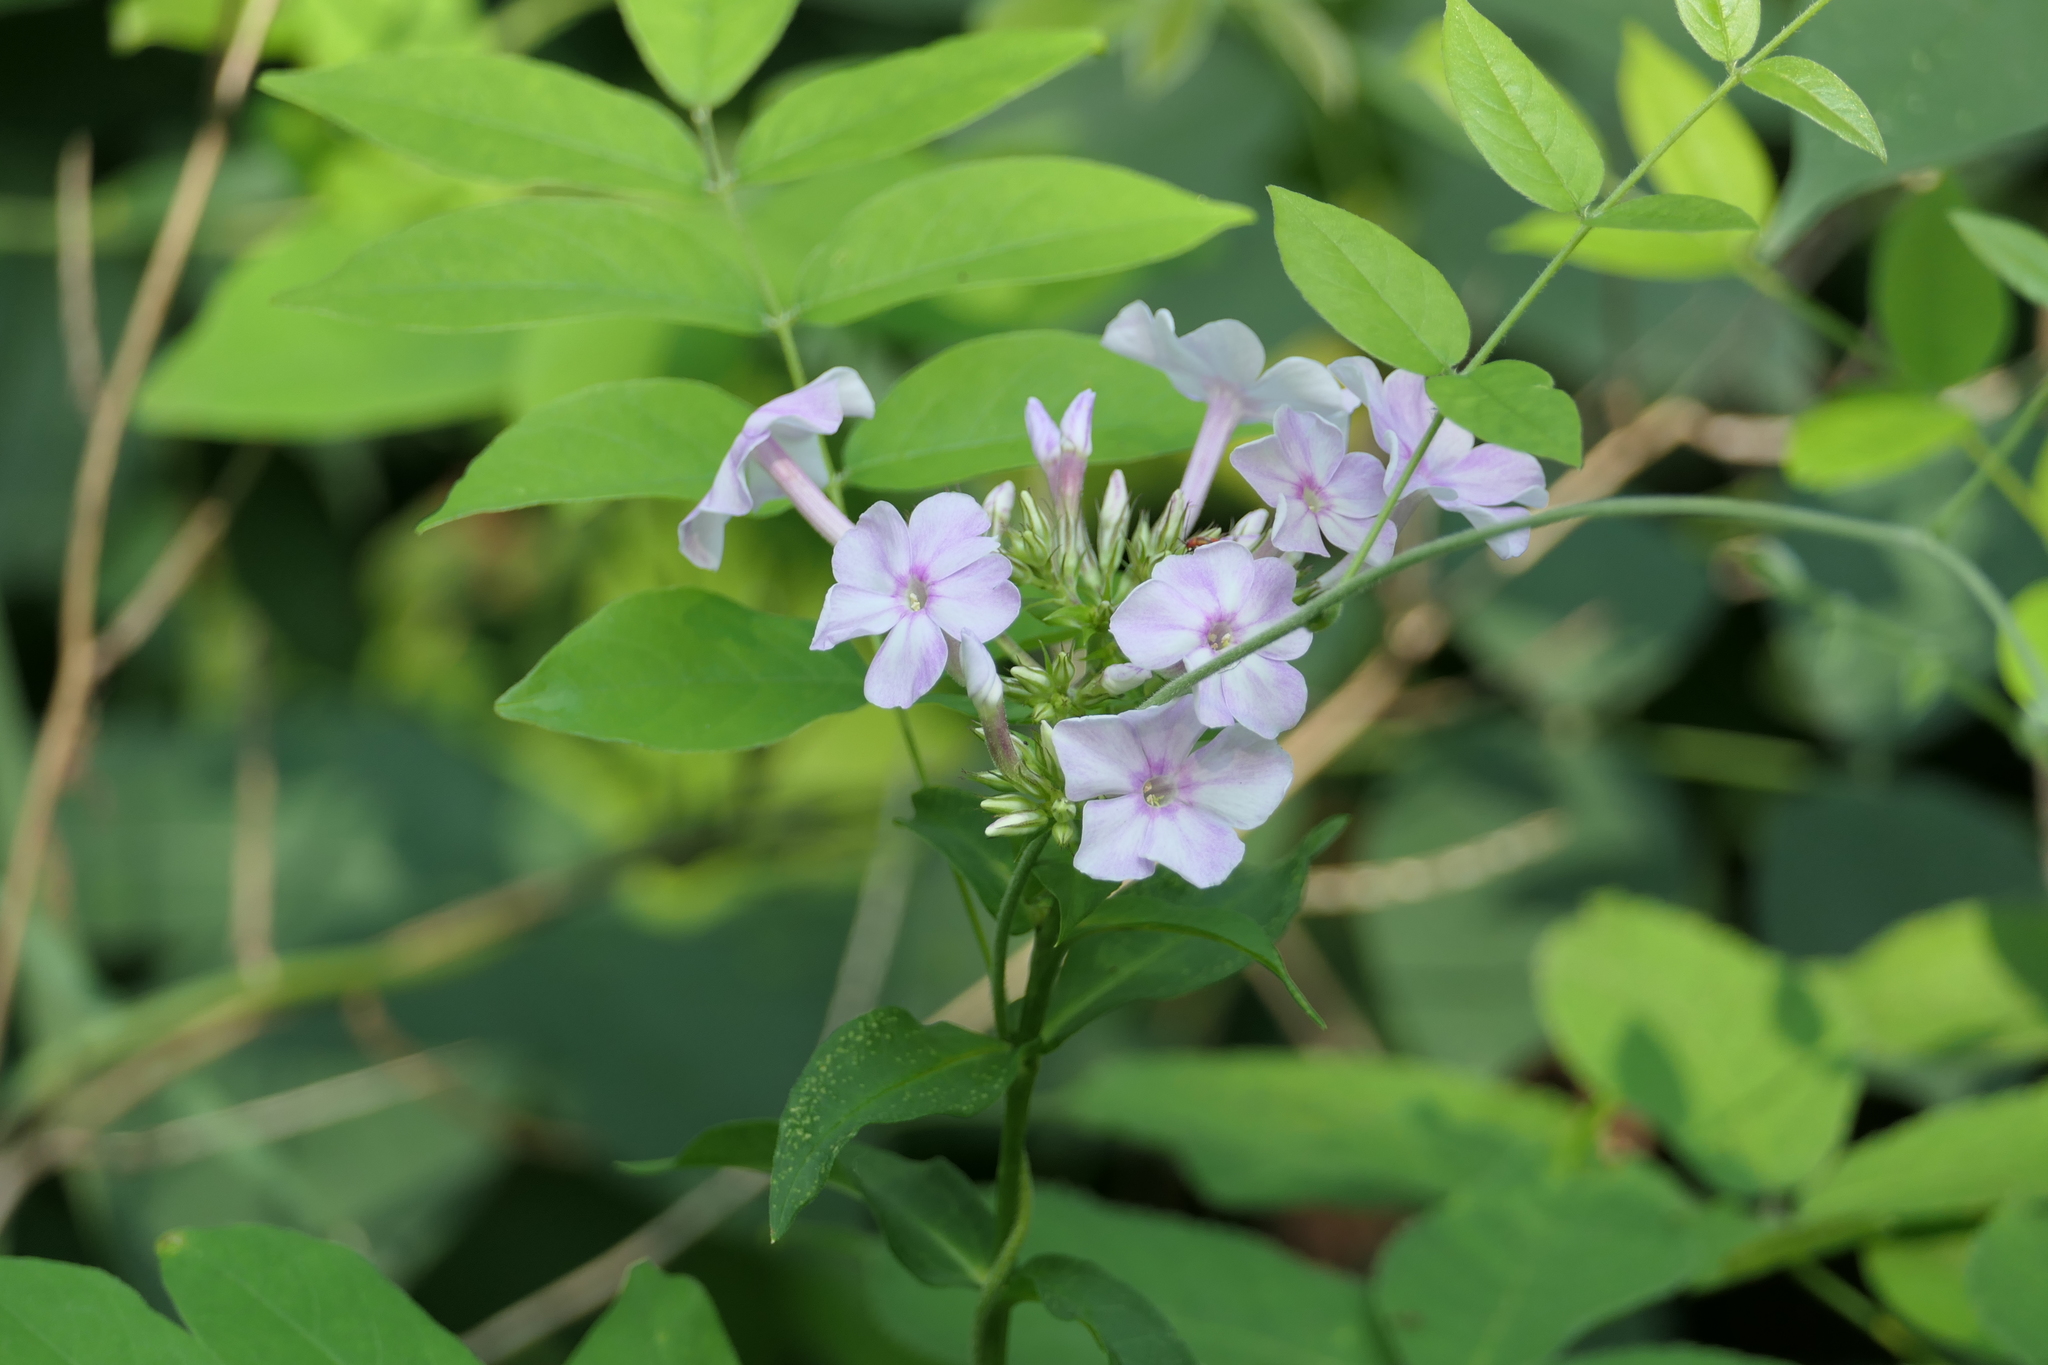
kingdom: Plantae
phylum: Tracheophyta
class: Magnoliopsida
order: Ericales
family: Polemoniaceae
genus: Phlox
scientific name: Phlox paniculata
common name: Fall phlox
